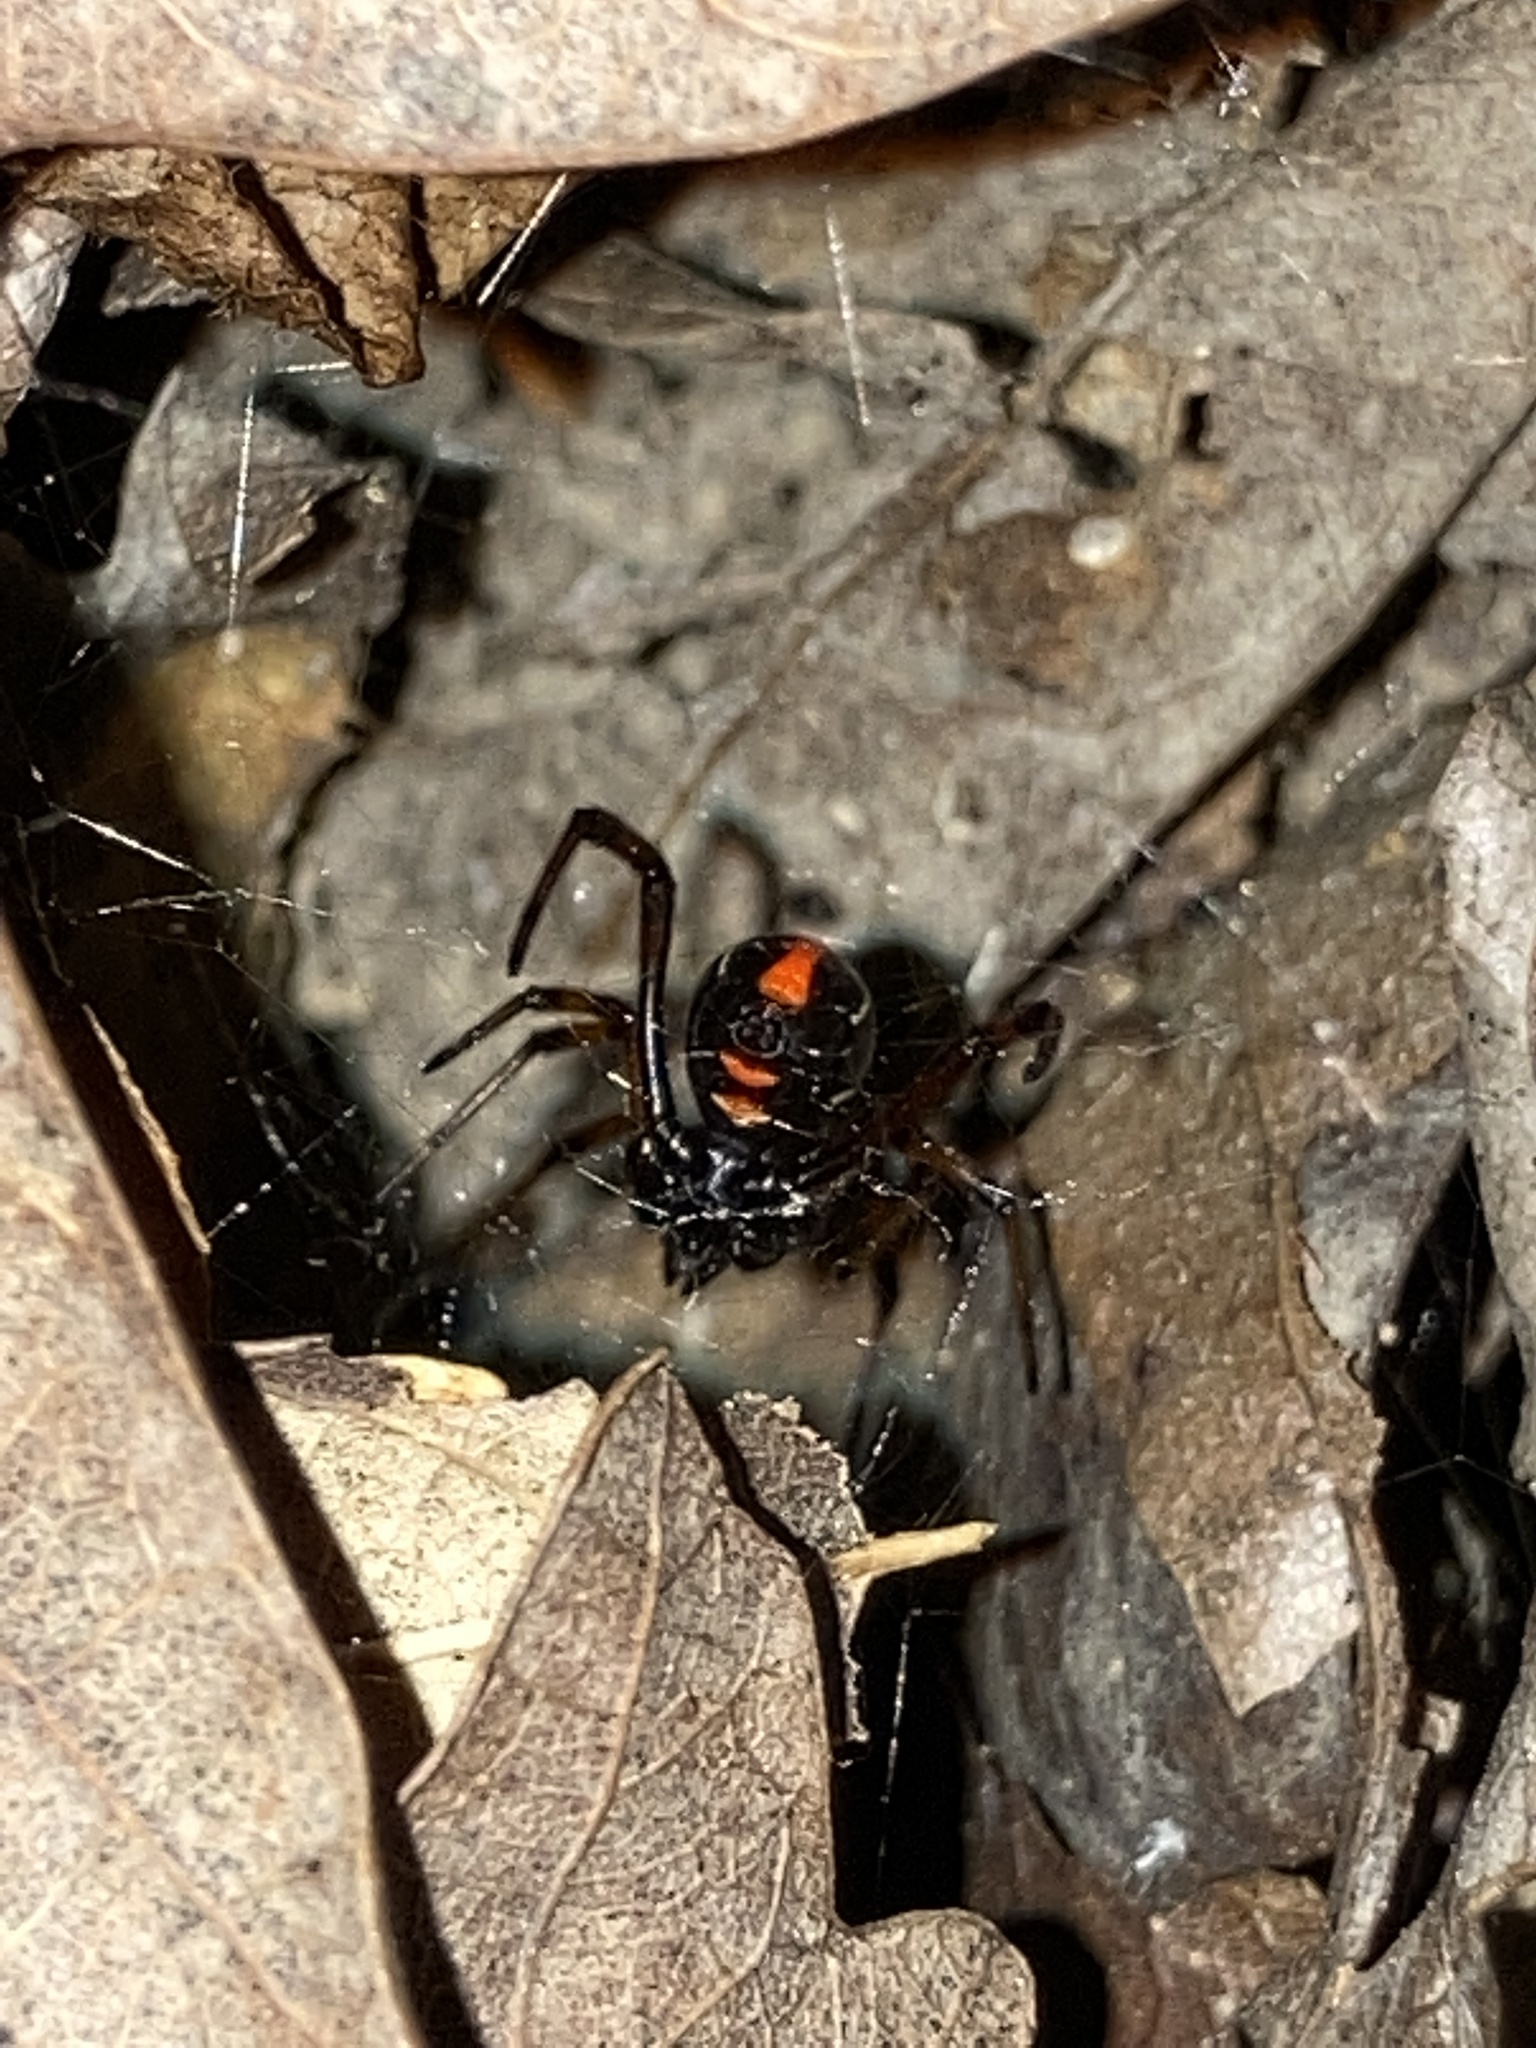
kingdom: Animalia
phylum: Arthropoda
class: Arachnida
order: Araneae
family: Theridiidae
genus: Latrodectus
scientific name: Latrodectus variolus
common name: Northern black widow
